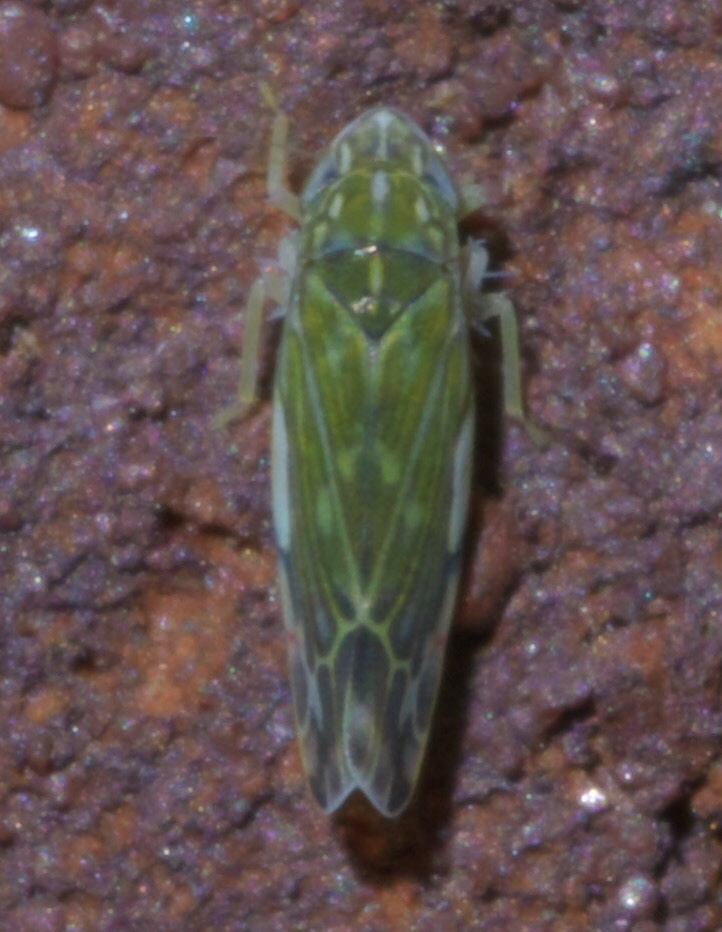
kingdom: Animalia
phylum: Arthropoda
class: Insecta
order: Hemiptera
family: Cicadellidae
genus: Erasmoneura
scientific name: Erasmoneura vulnerata
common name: The wounded leafhopper
